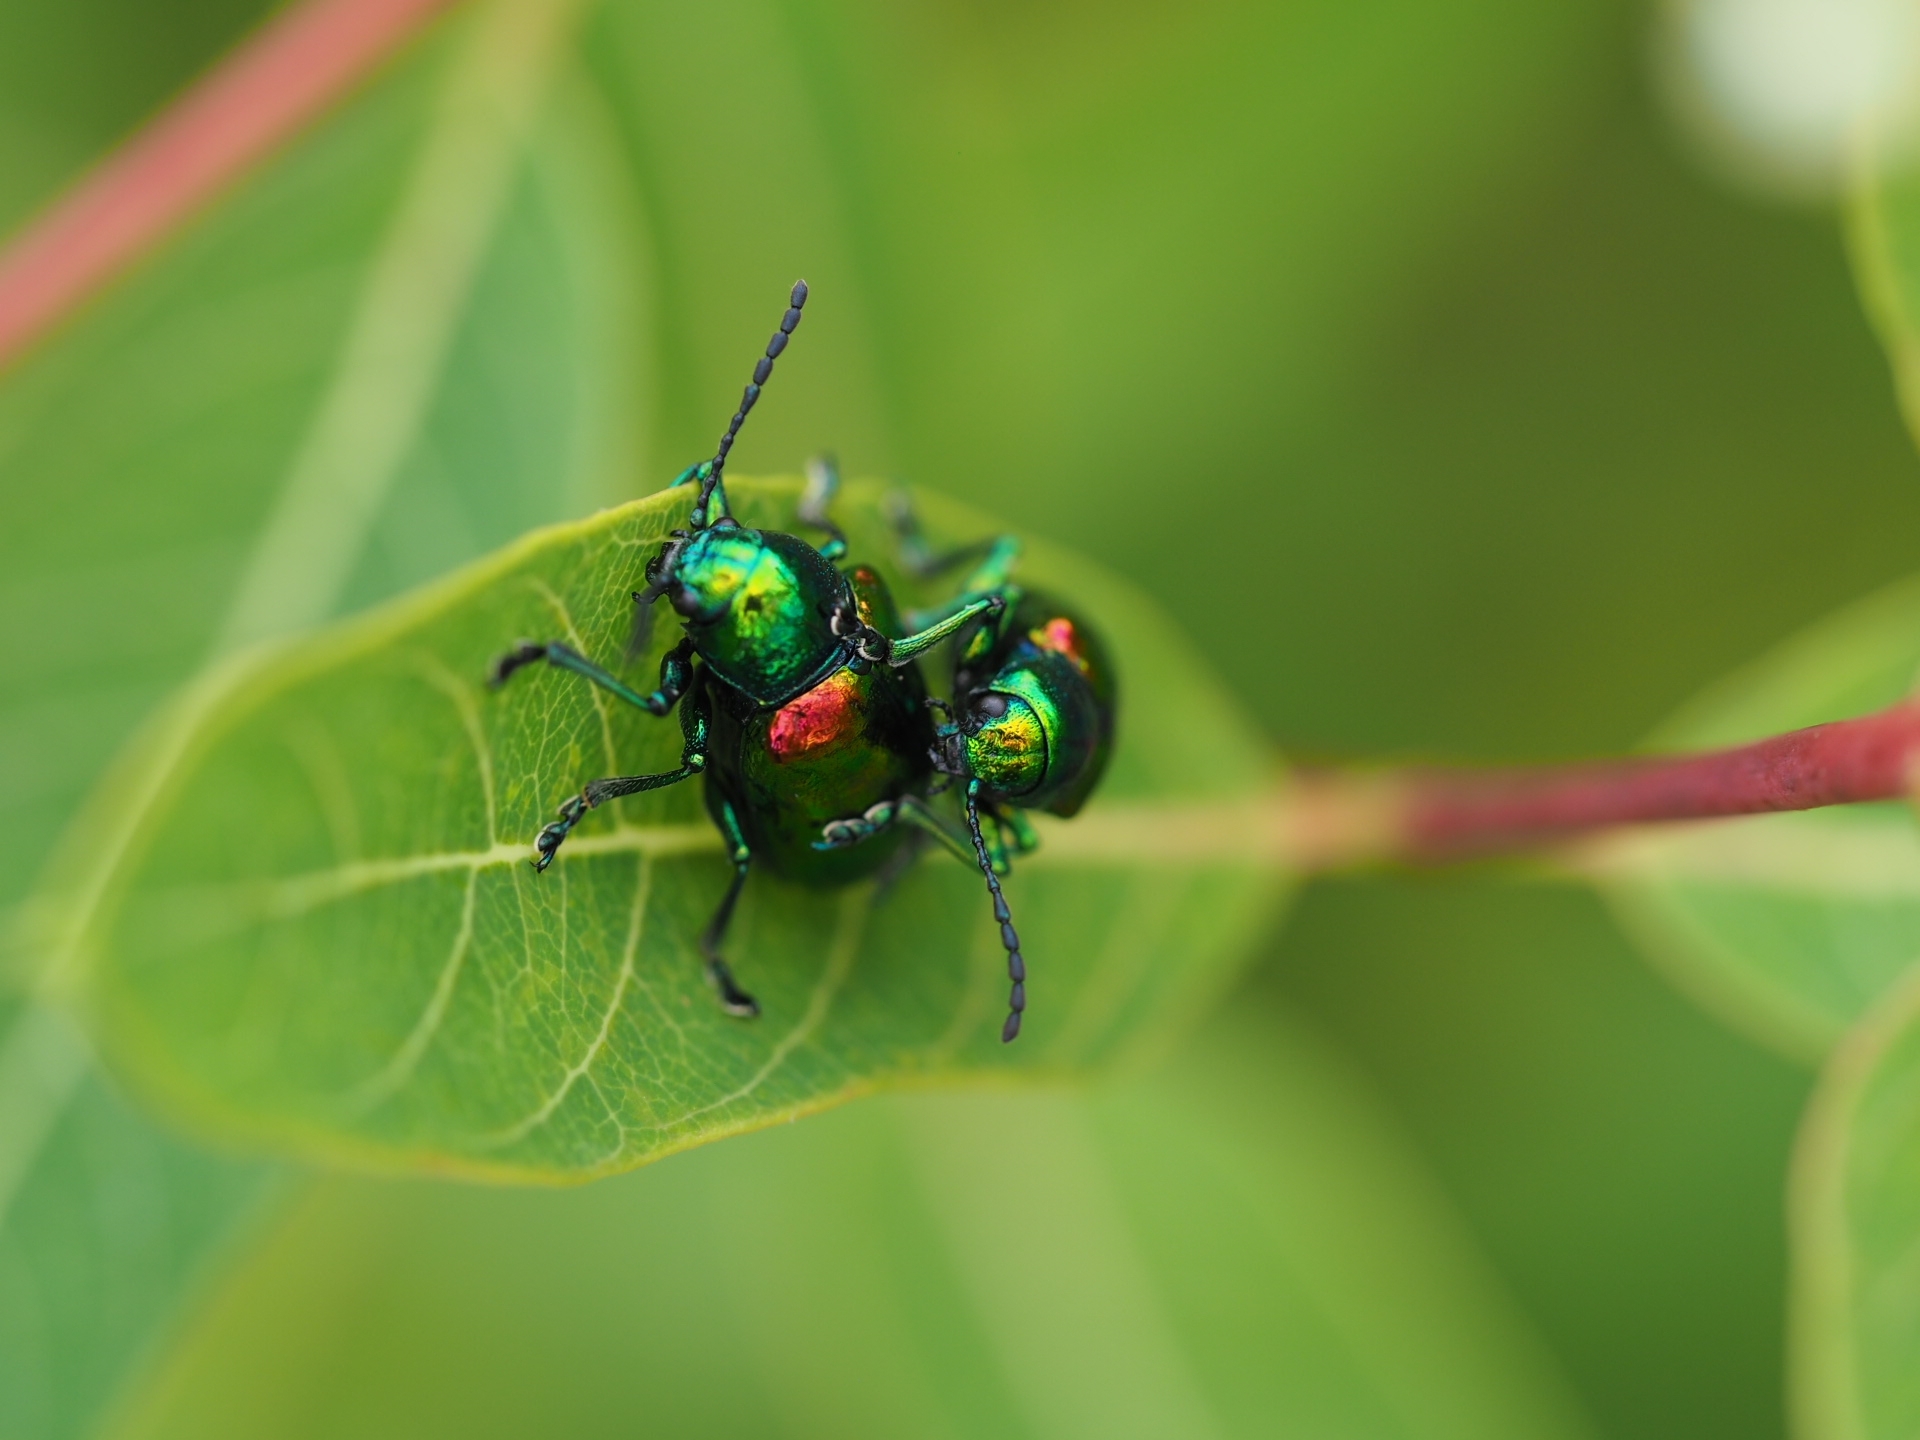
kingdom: Animalia
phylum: Arthropoda
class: Insecta
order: Coleoptera
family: Chrysomelidae
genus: Chrysochus
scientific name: Chrysochus auratus
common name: Dogbane leaf beetle
